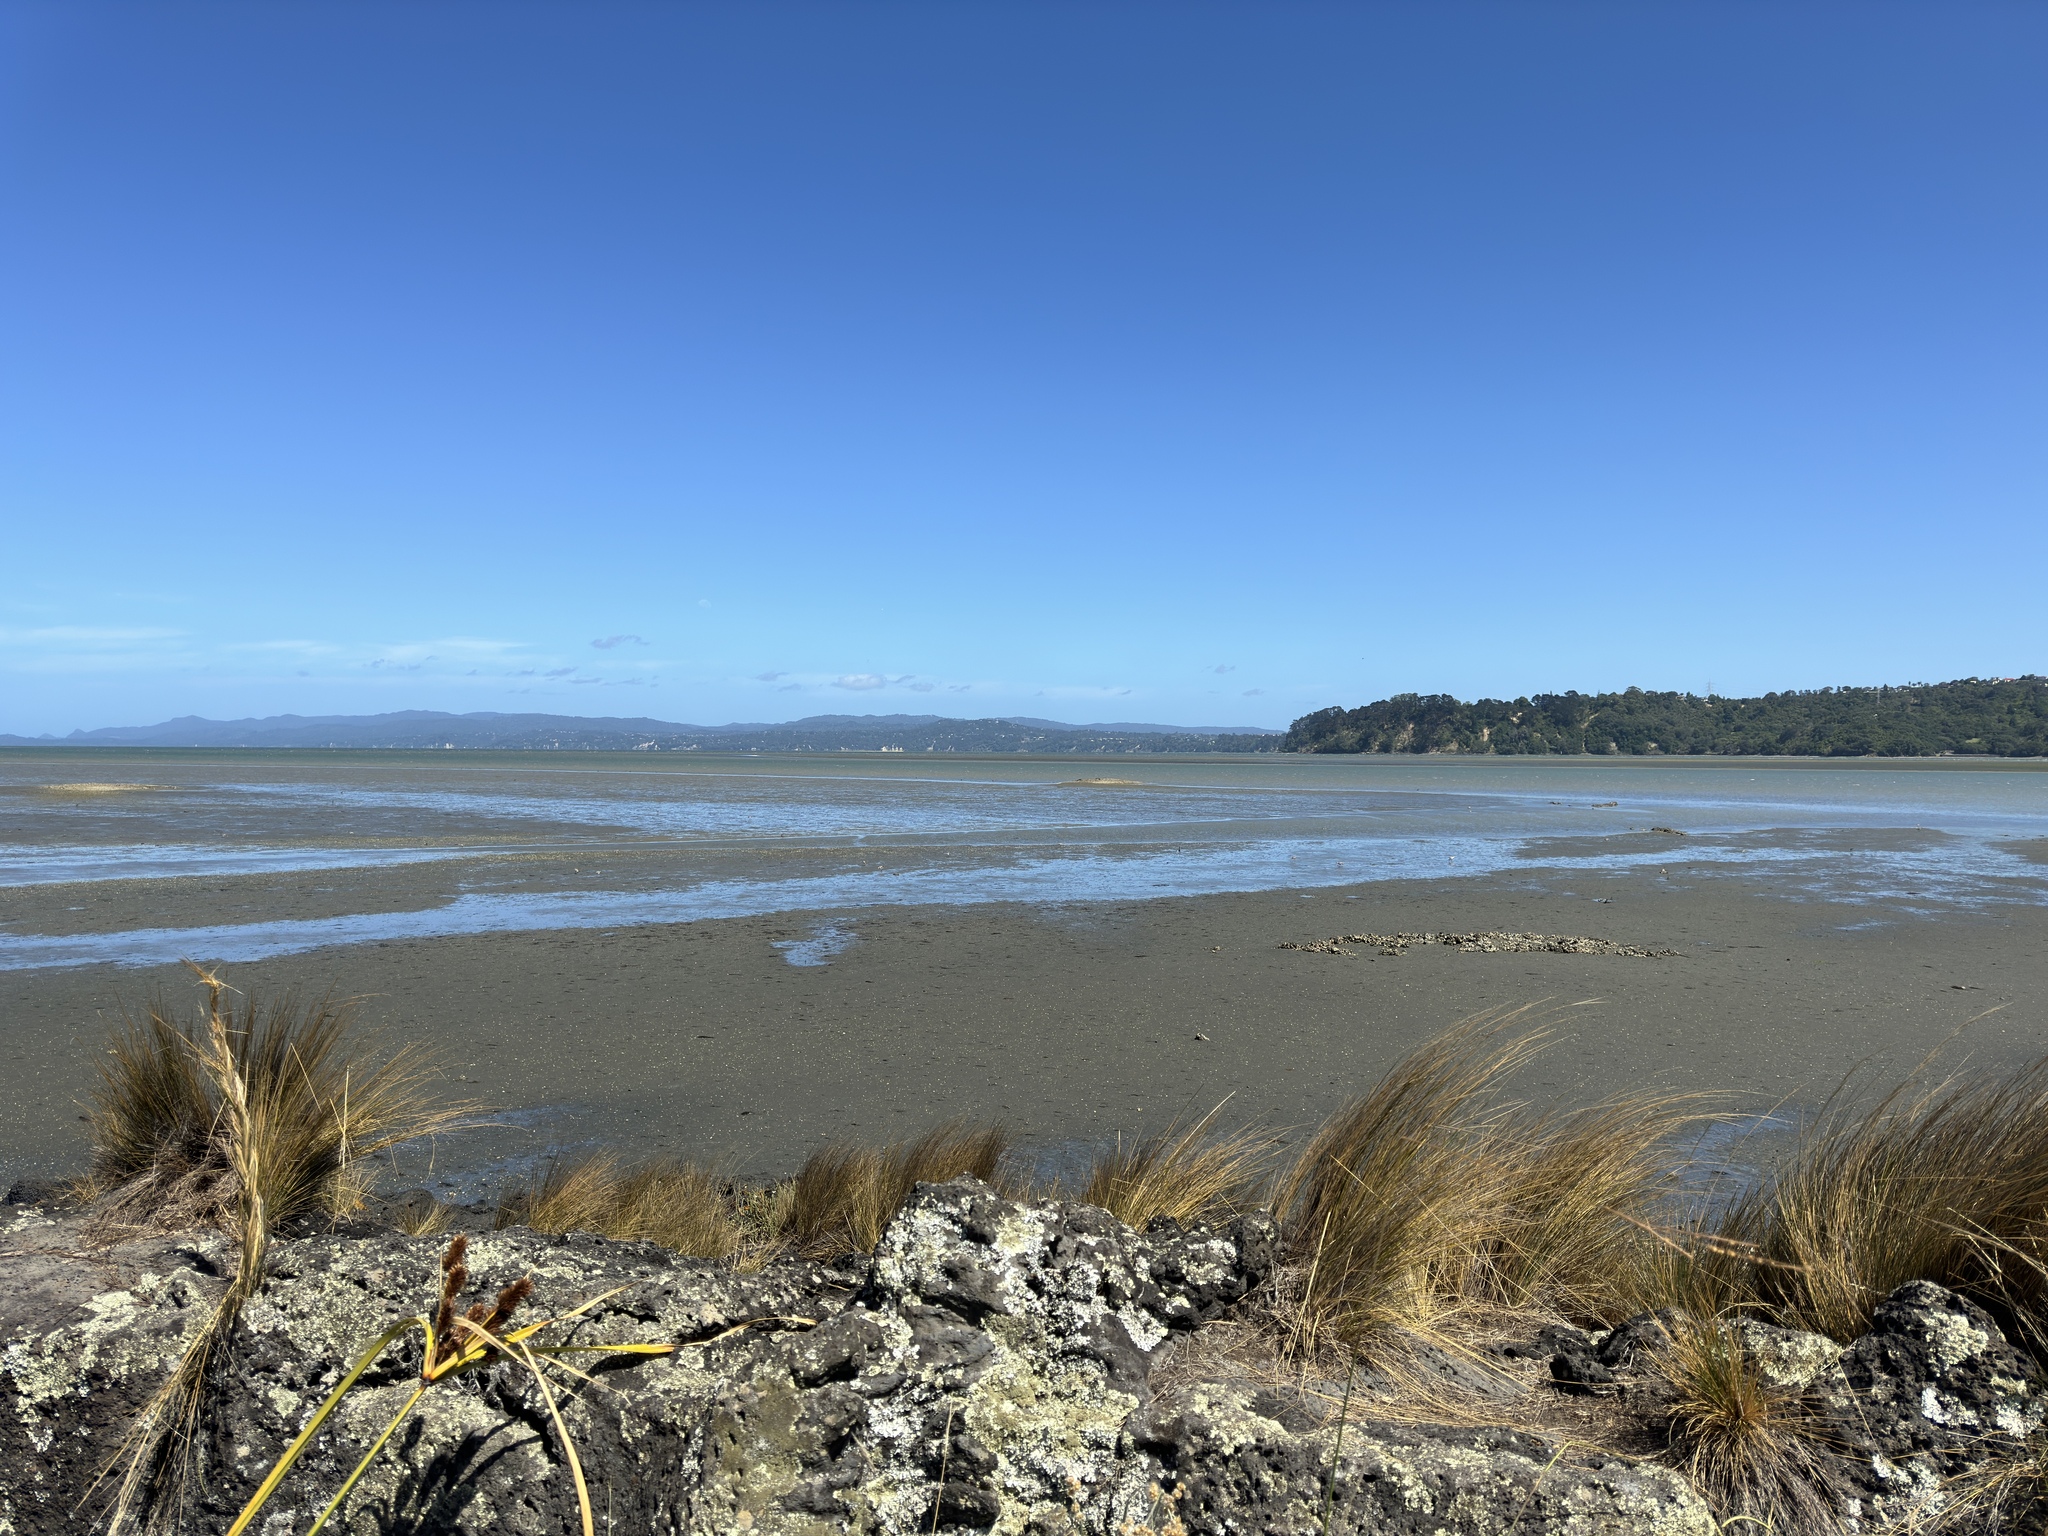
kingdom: Plantae
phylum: Tracheophyta
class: Liliopsida
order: Poales
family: Cyperaceae
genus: Cyperus
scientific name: Cyperus ustulatus
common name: Giant umbrella-sedge
